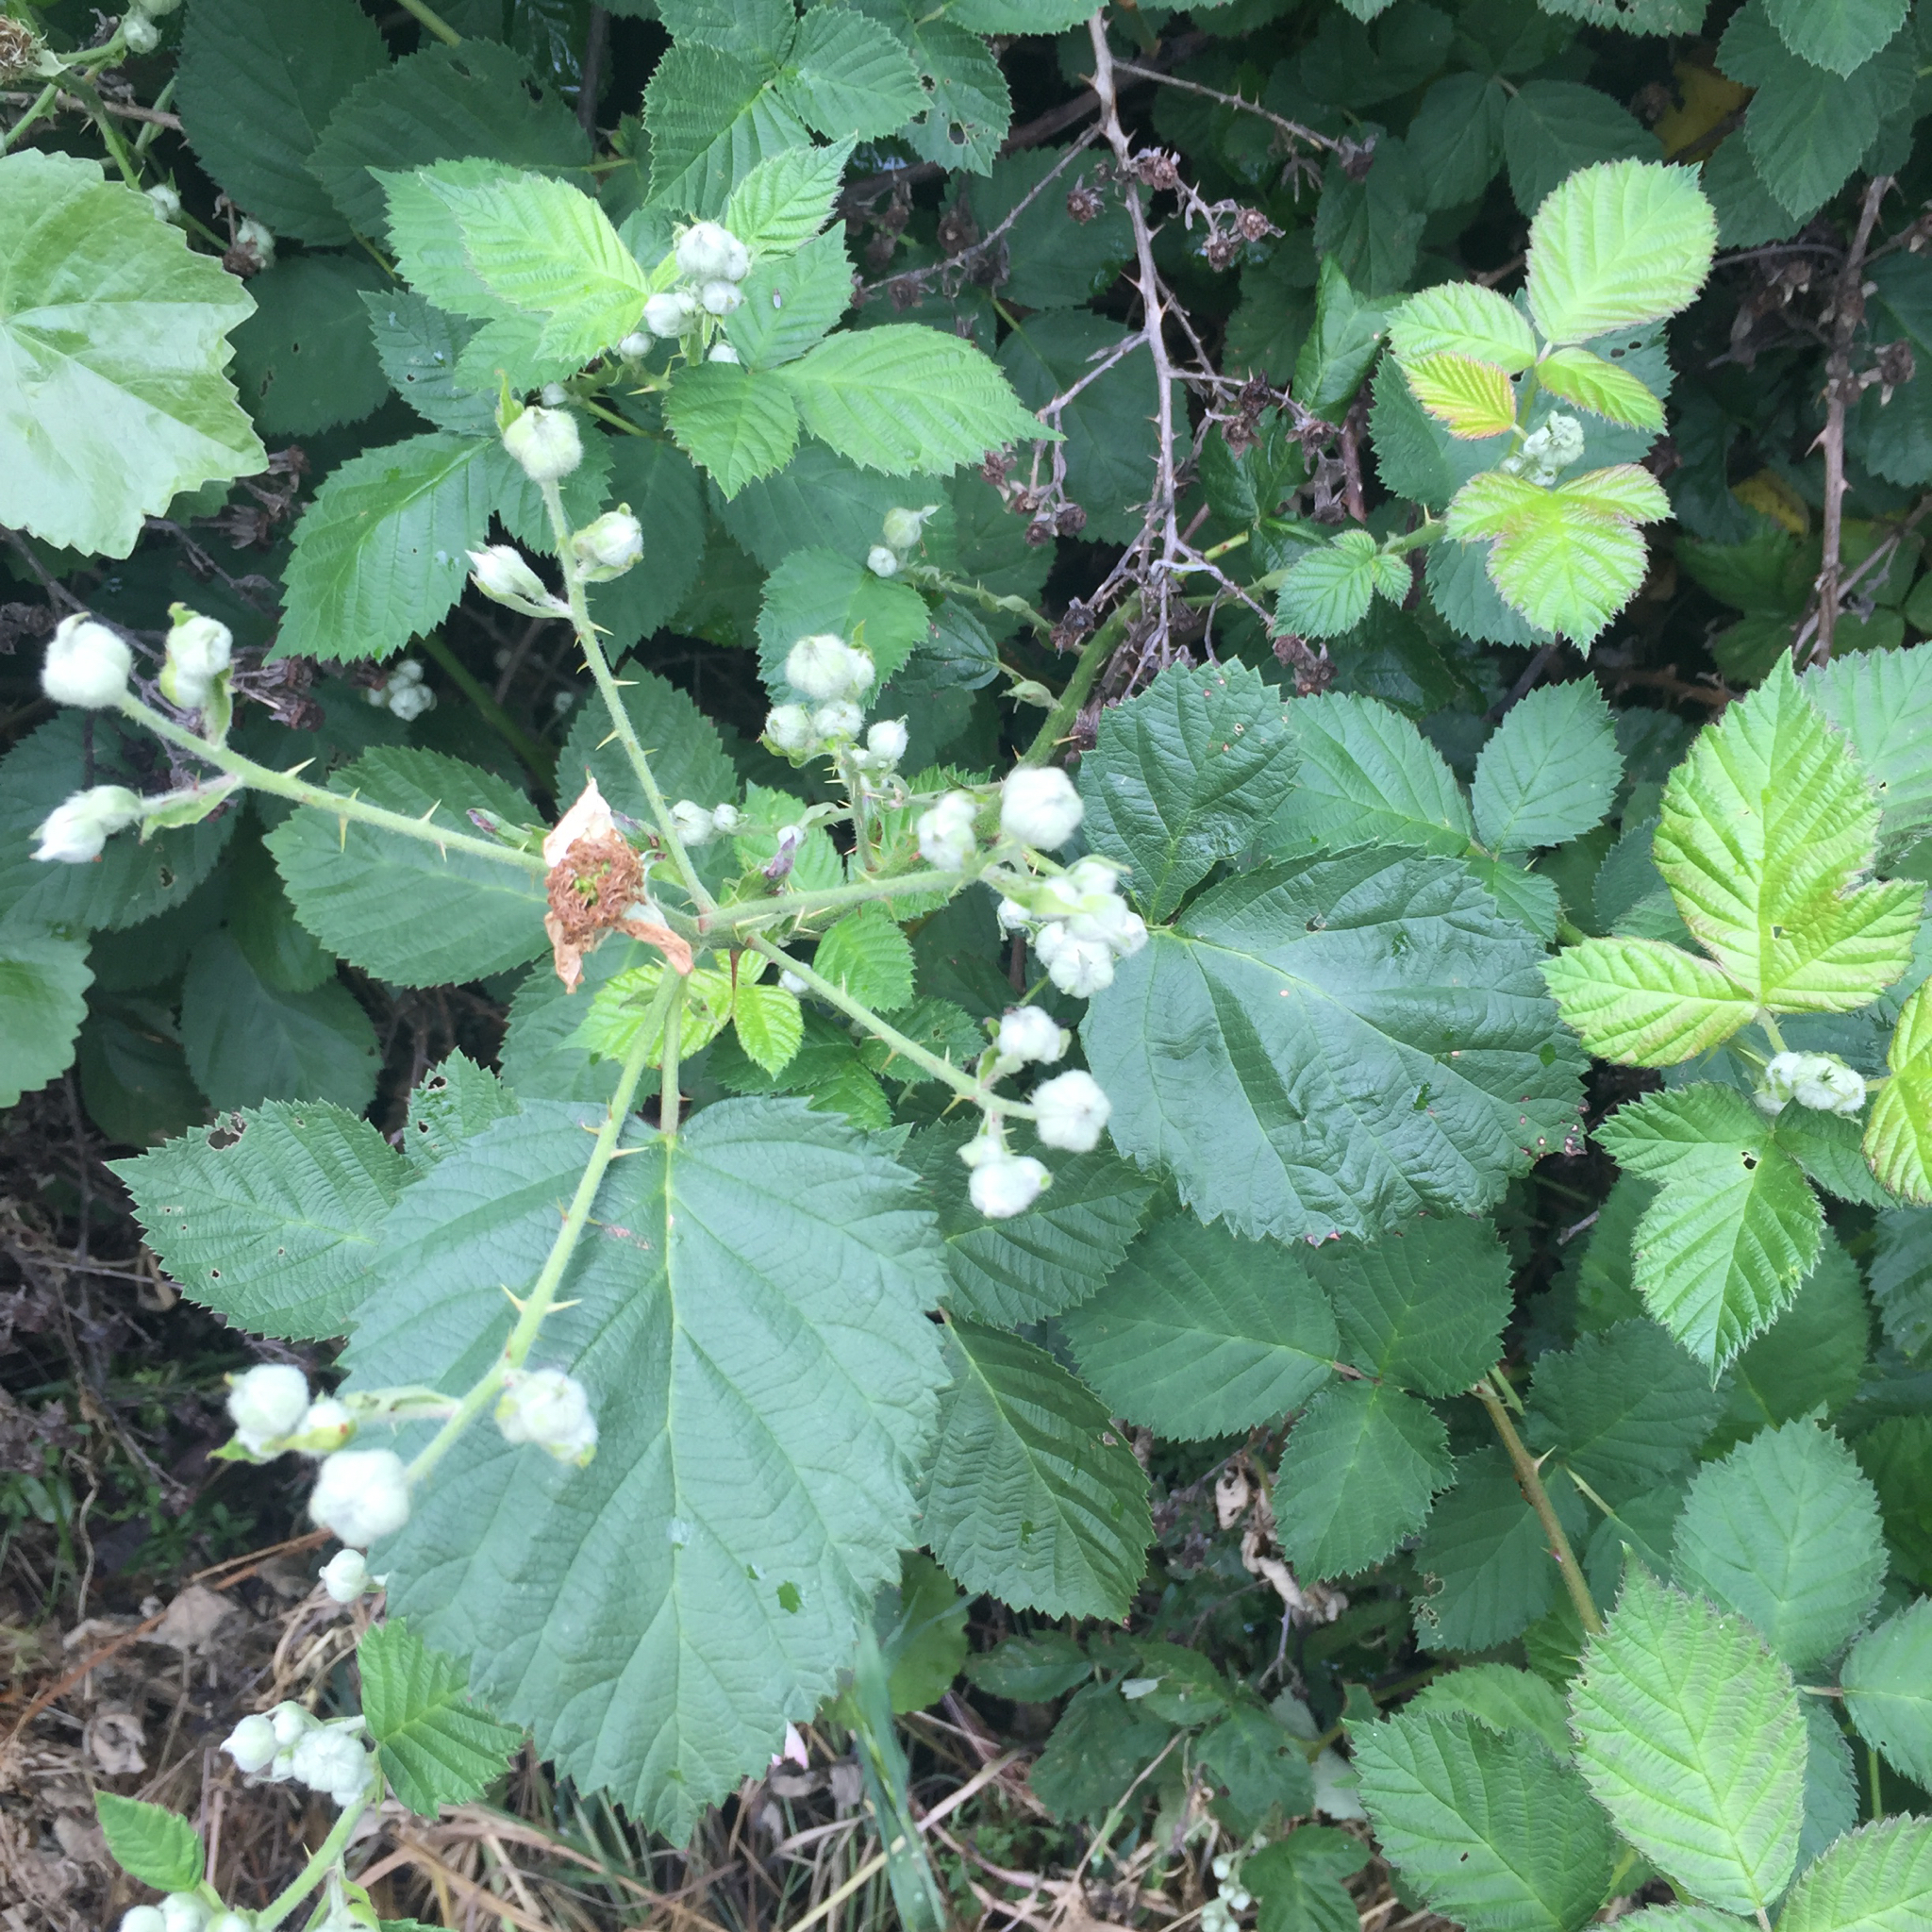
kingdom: Plantae
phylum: Tracheophyta
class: Magnoliopsida
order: Rosales
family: Rosaceae
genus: Rubus
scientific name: Rubus armeniacus
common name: Himalayan blackberry
